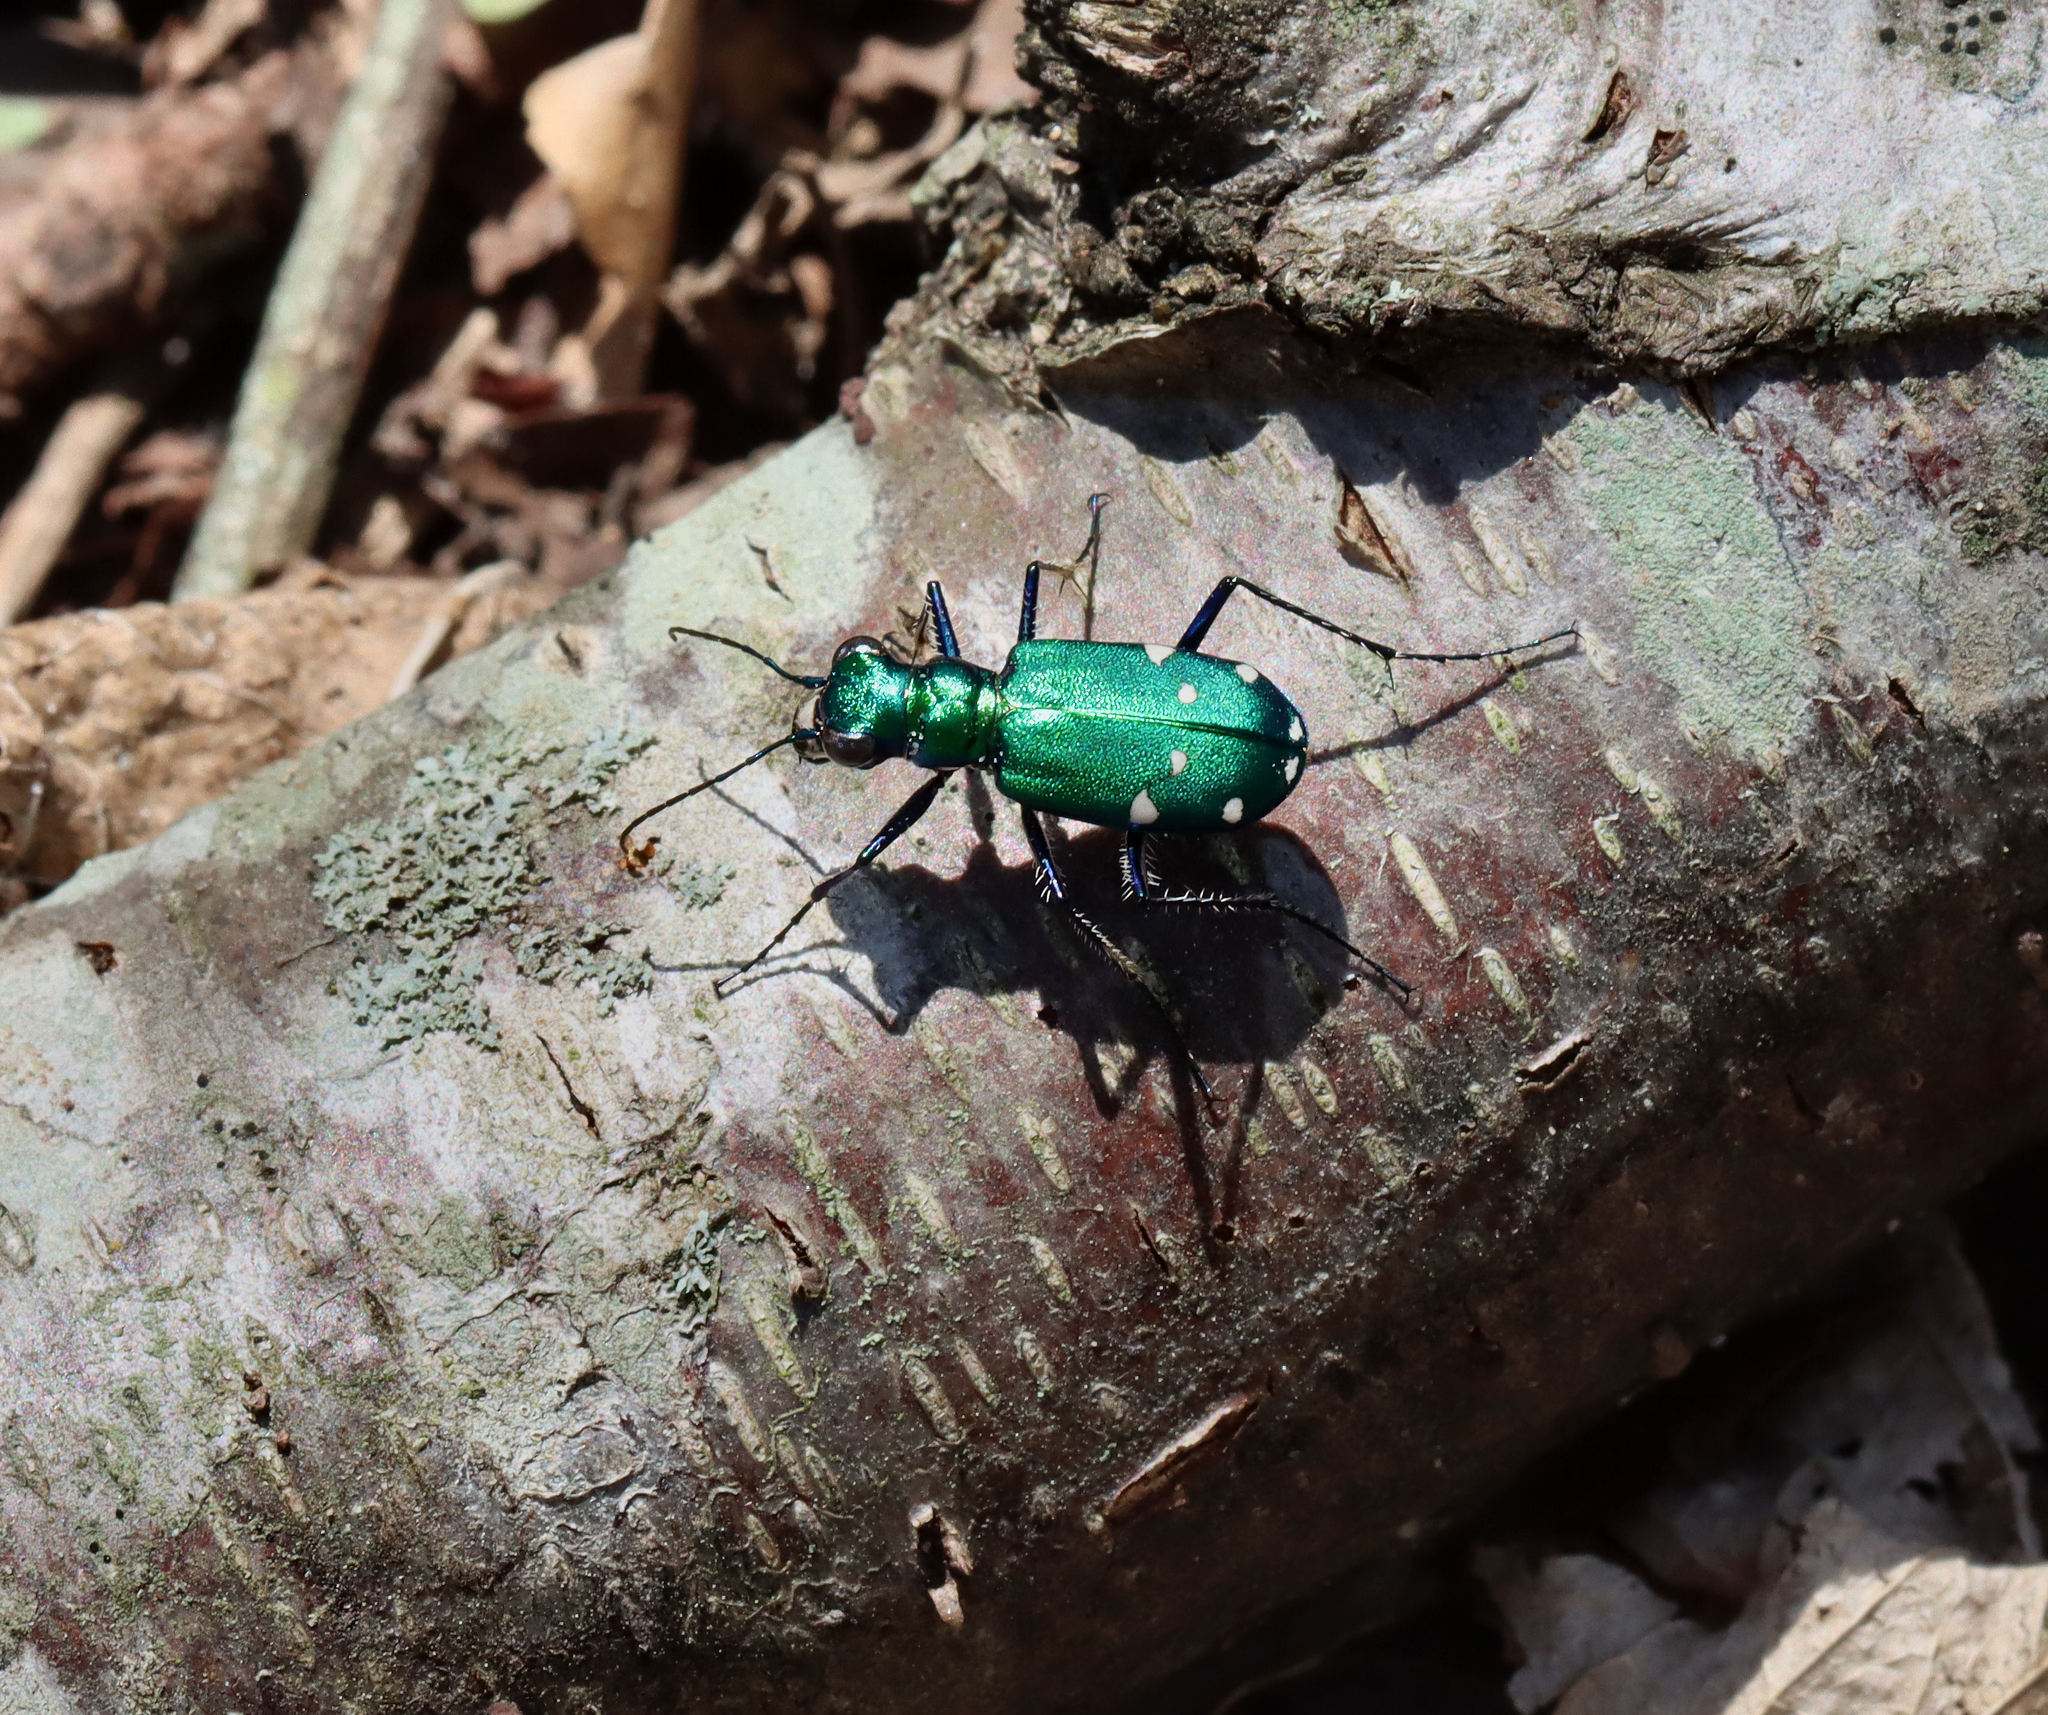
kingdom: Animalia
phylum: Arthropoda
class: Insecta
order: Coleoptera
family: Carabidae
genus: Cicindela
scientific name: Cicindela sexguttata
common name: Six-spotted tiger beetle
